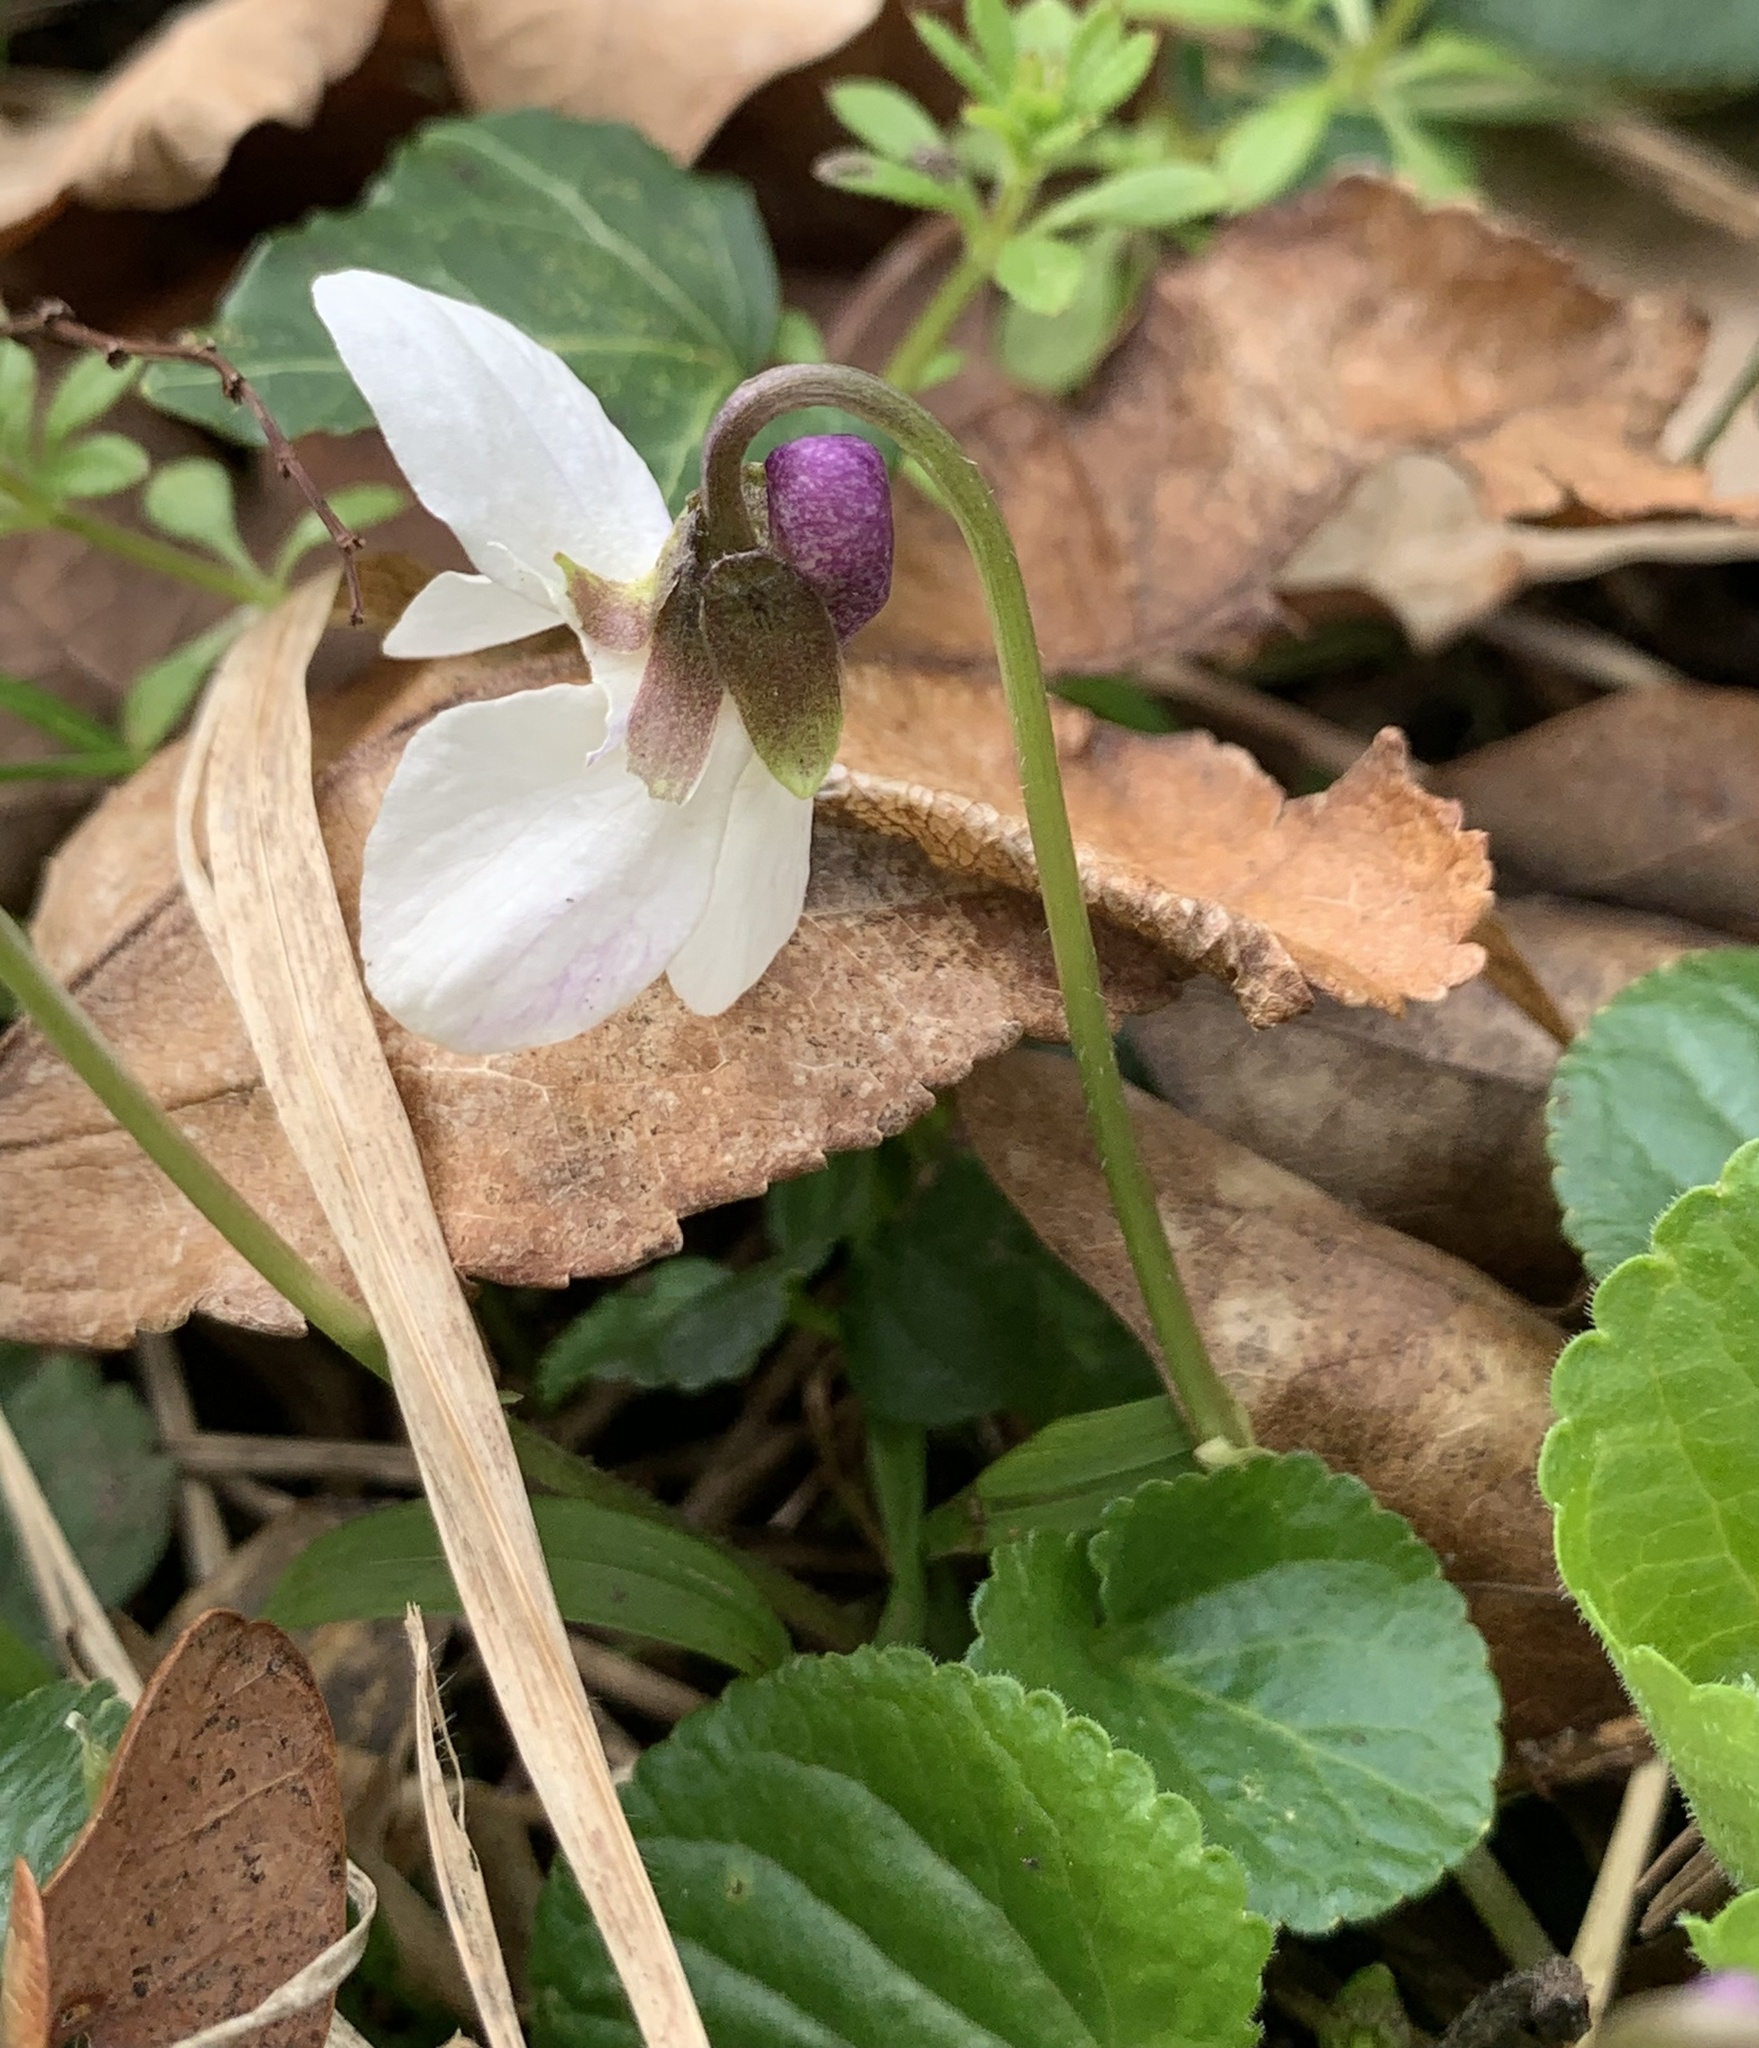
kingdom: Plantae
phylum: Tracheophyta
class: Magnoliopsida
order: Malpighiales
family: Violaceae
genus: Viola
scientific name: Viola odorata
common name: Sweet violet
